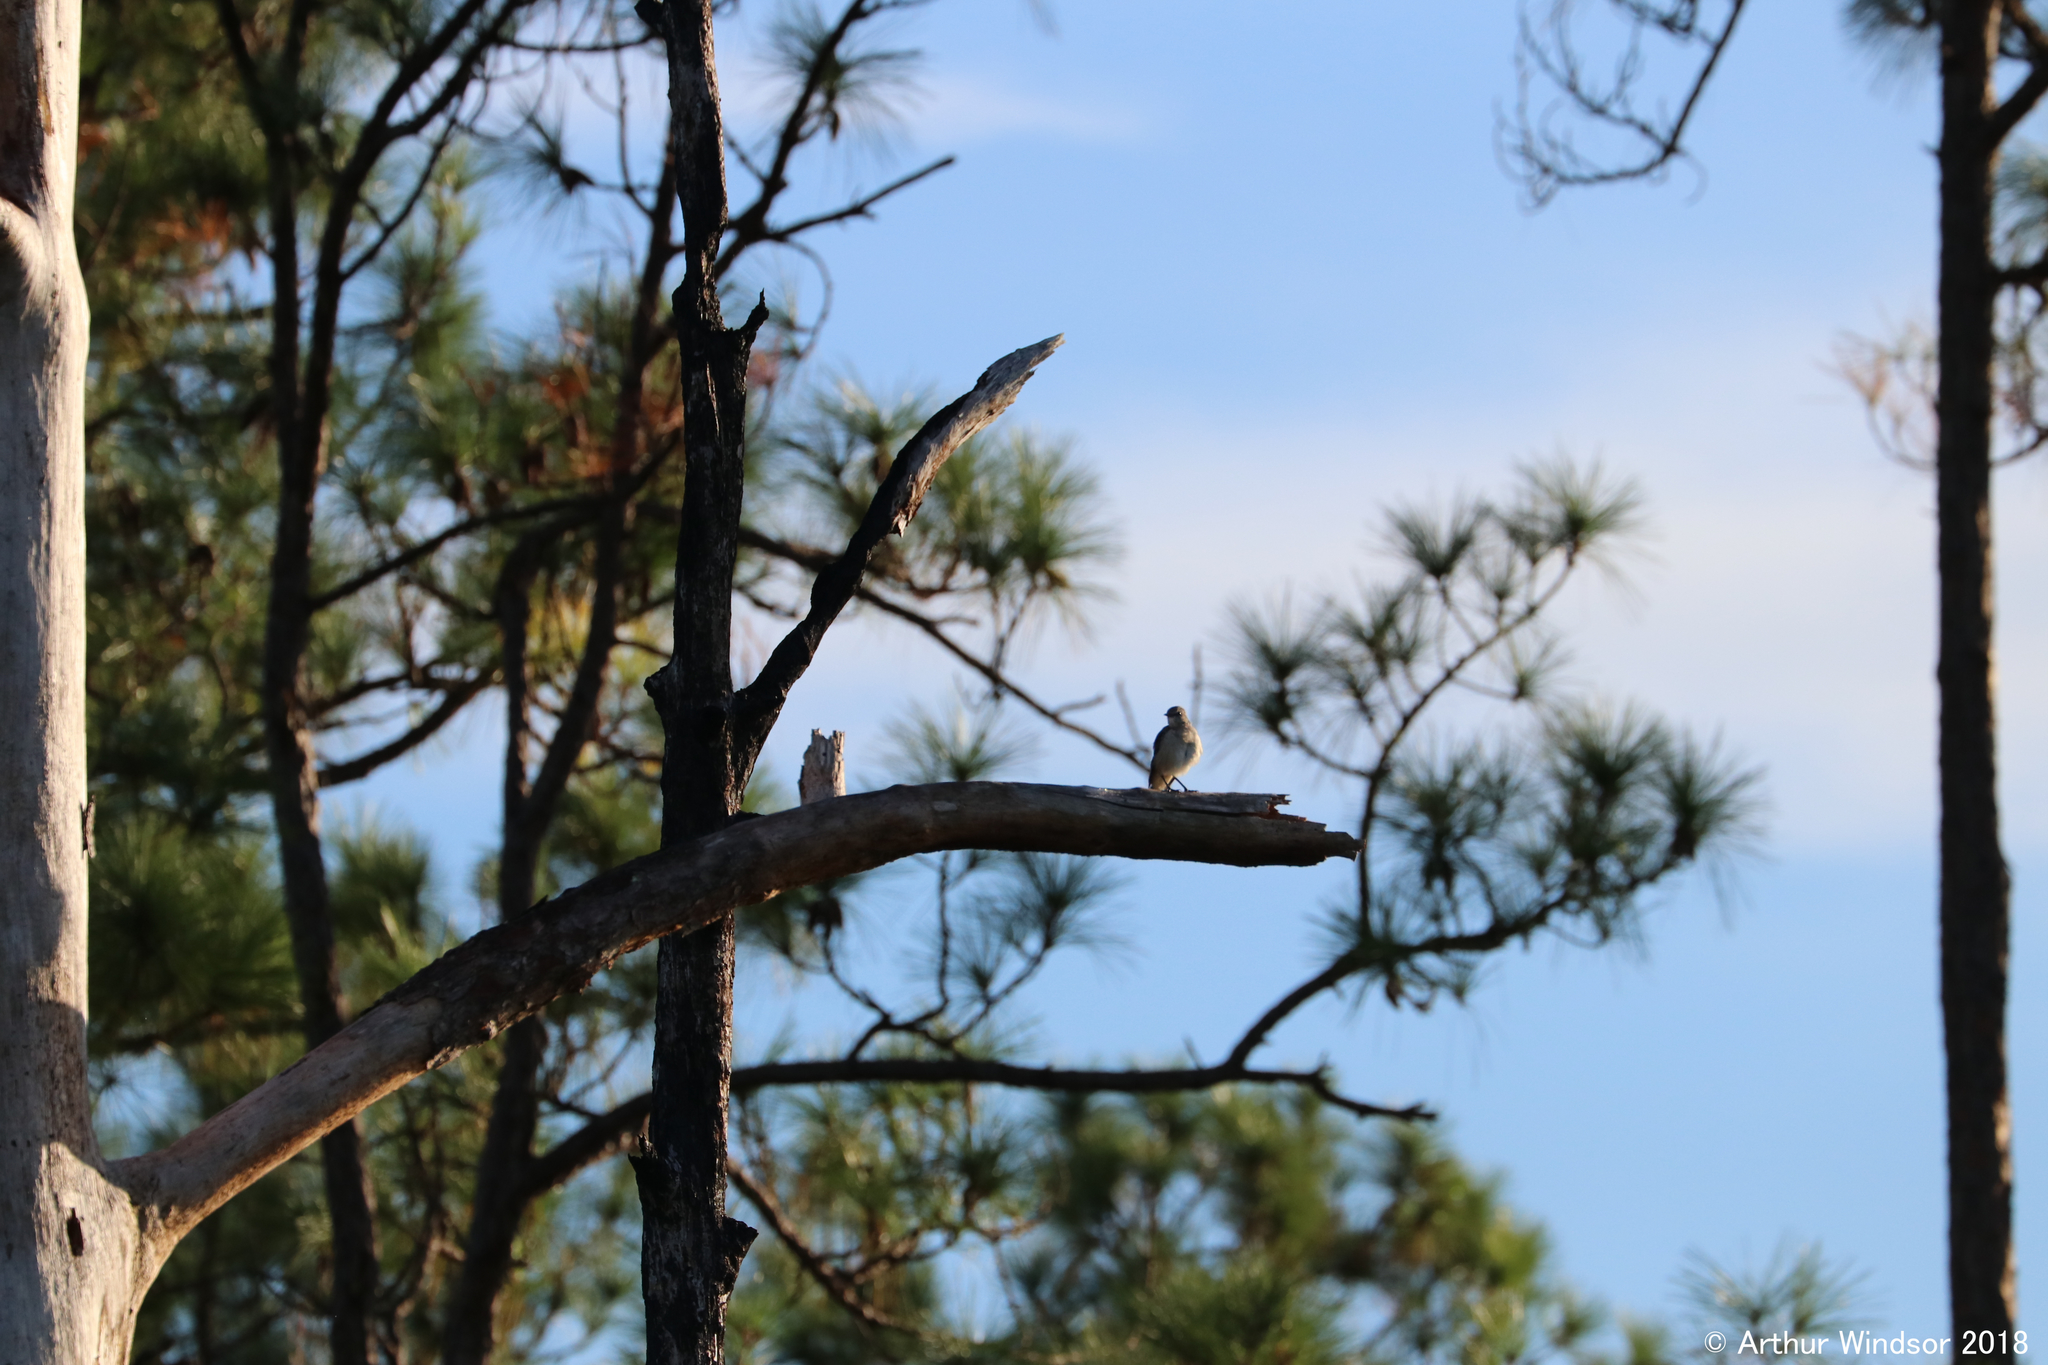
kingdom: Animalia
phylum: Chordata
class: Aves
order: Passeriformes
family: Mimidae
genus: Mimus
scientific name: Mimus polyglottos
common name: Northern mockingbird
